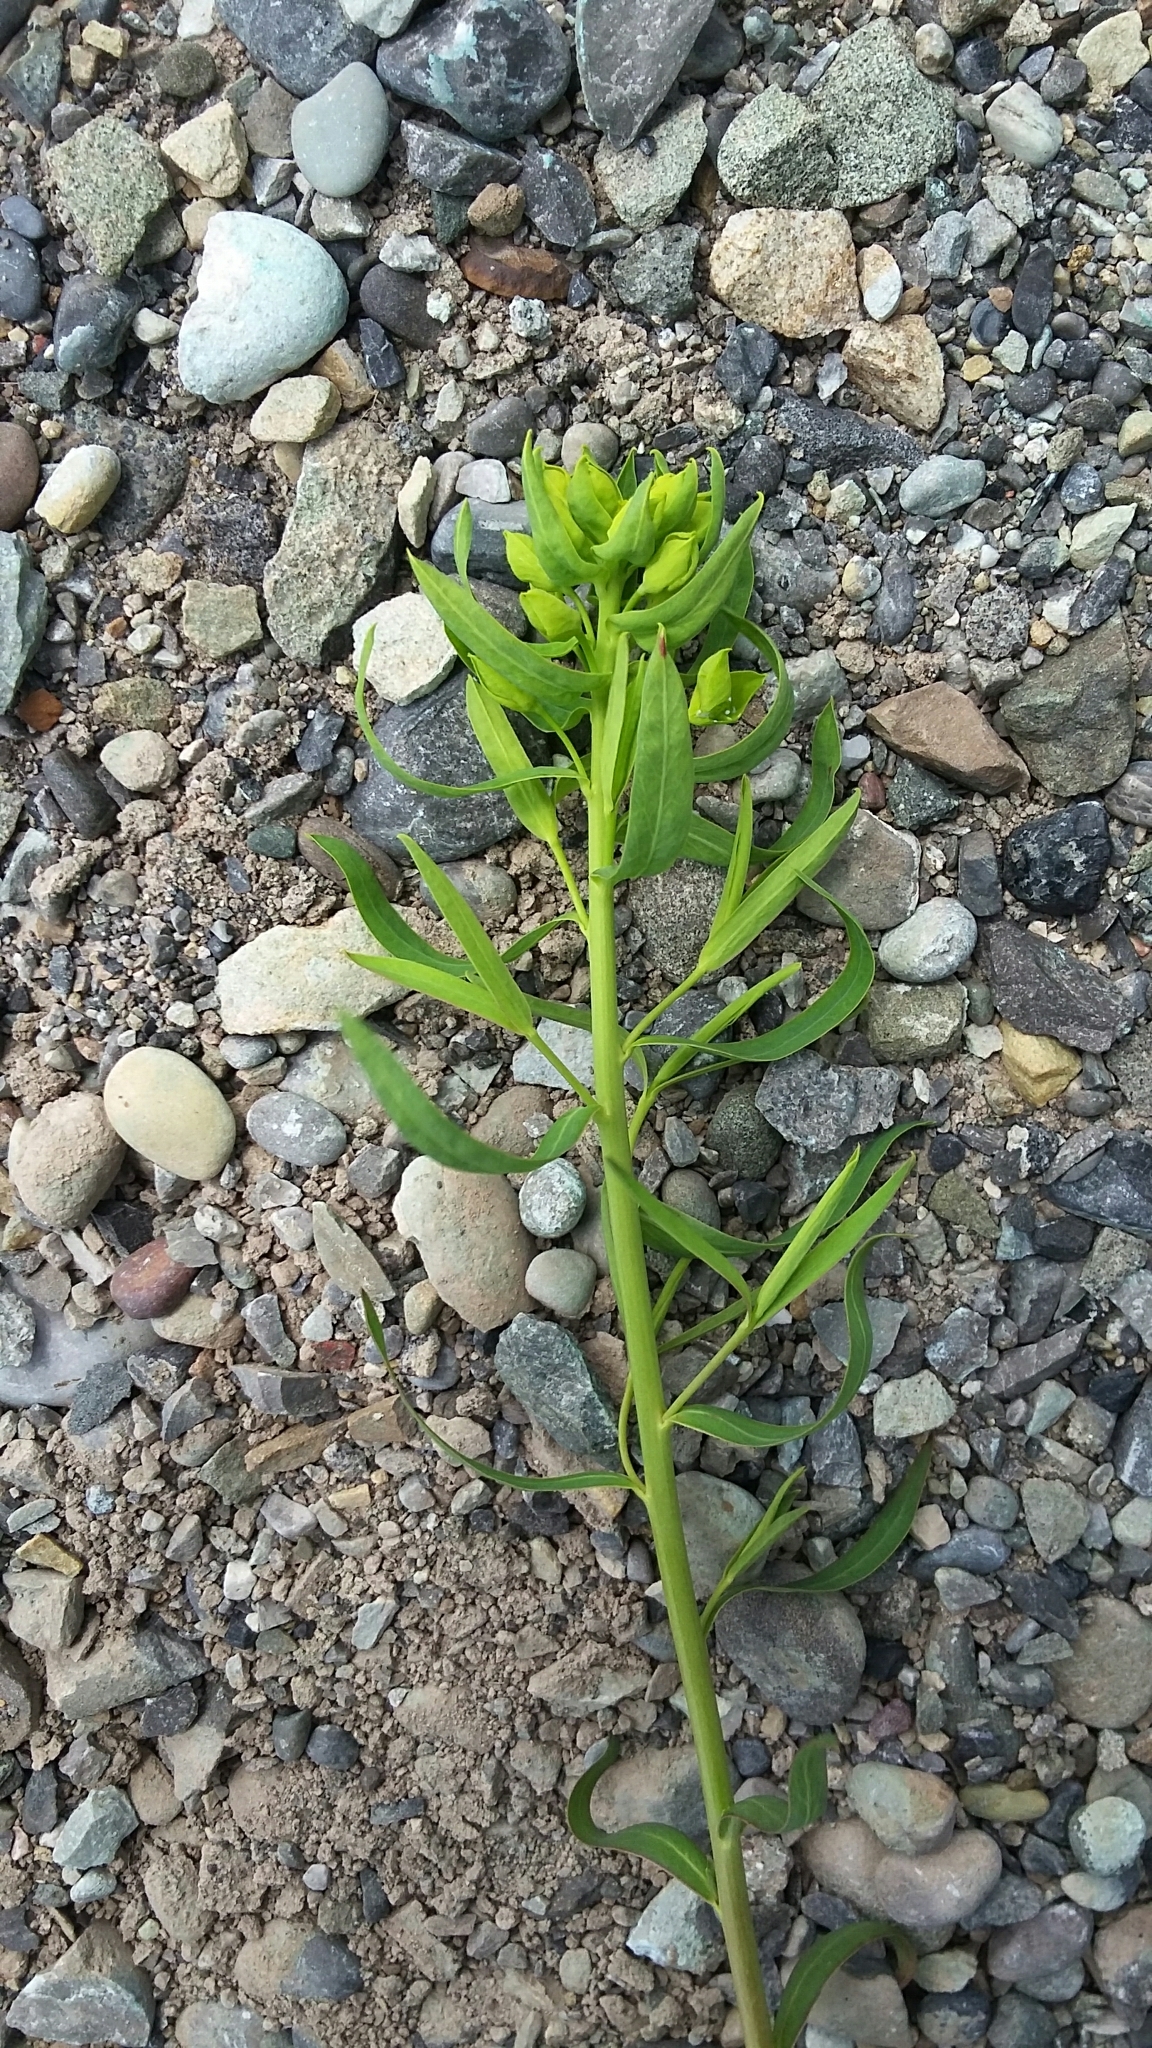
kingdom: Plantae
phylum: Tracheophyta
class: Magnoliopsida
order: Malpighiales
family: Euphorbiaceae
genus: Euphorbia
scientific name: Euphorbia virgata
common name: Leafy spurge
